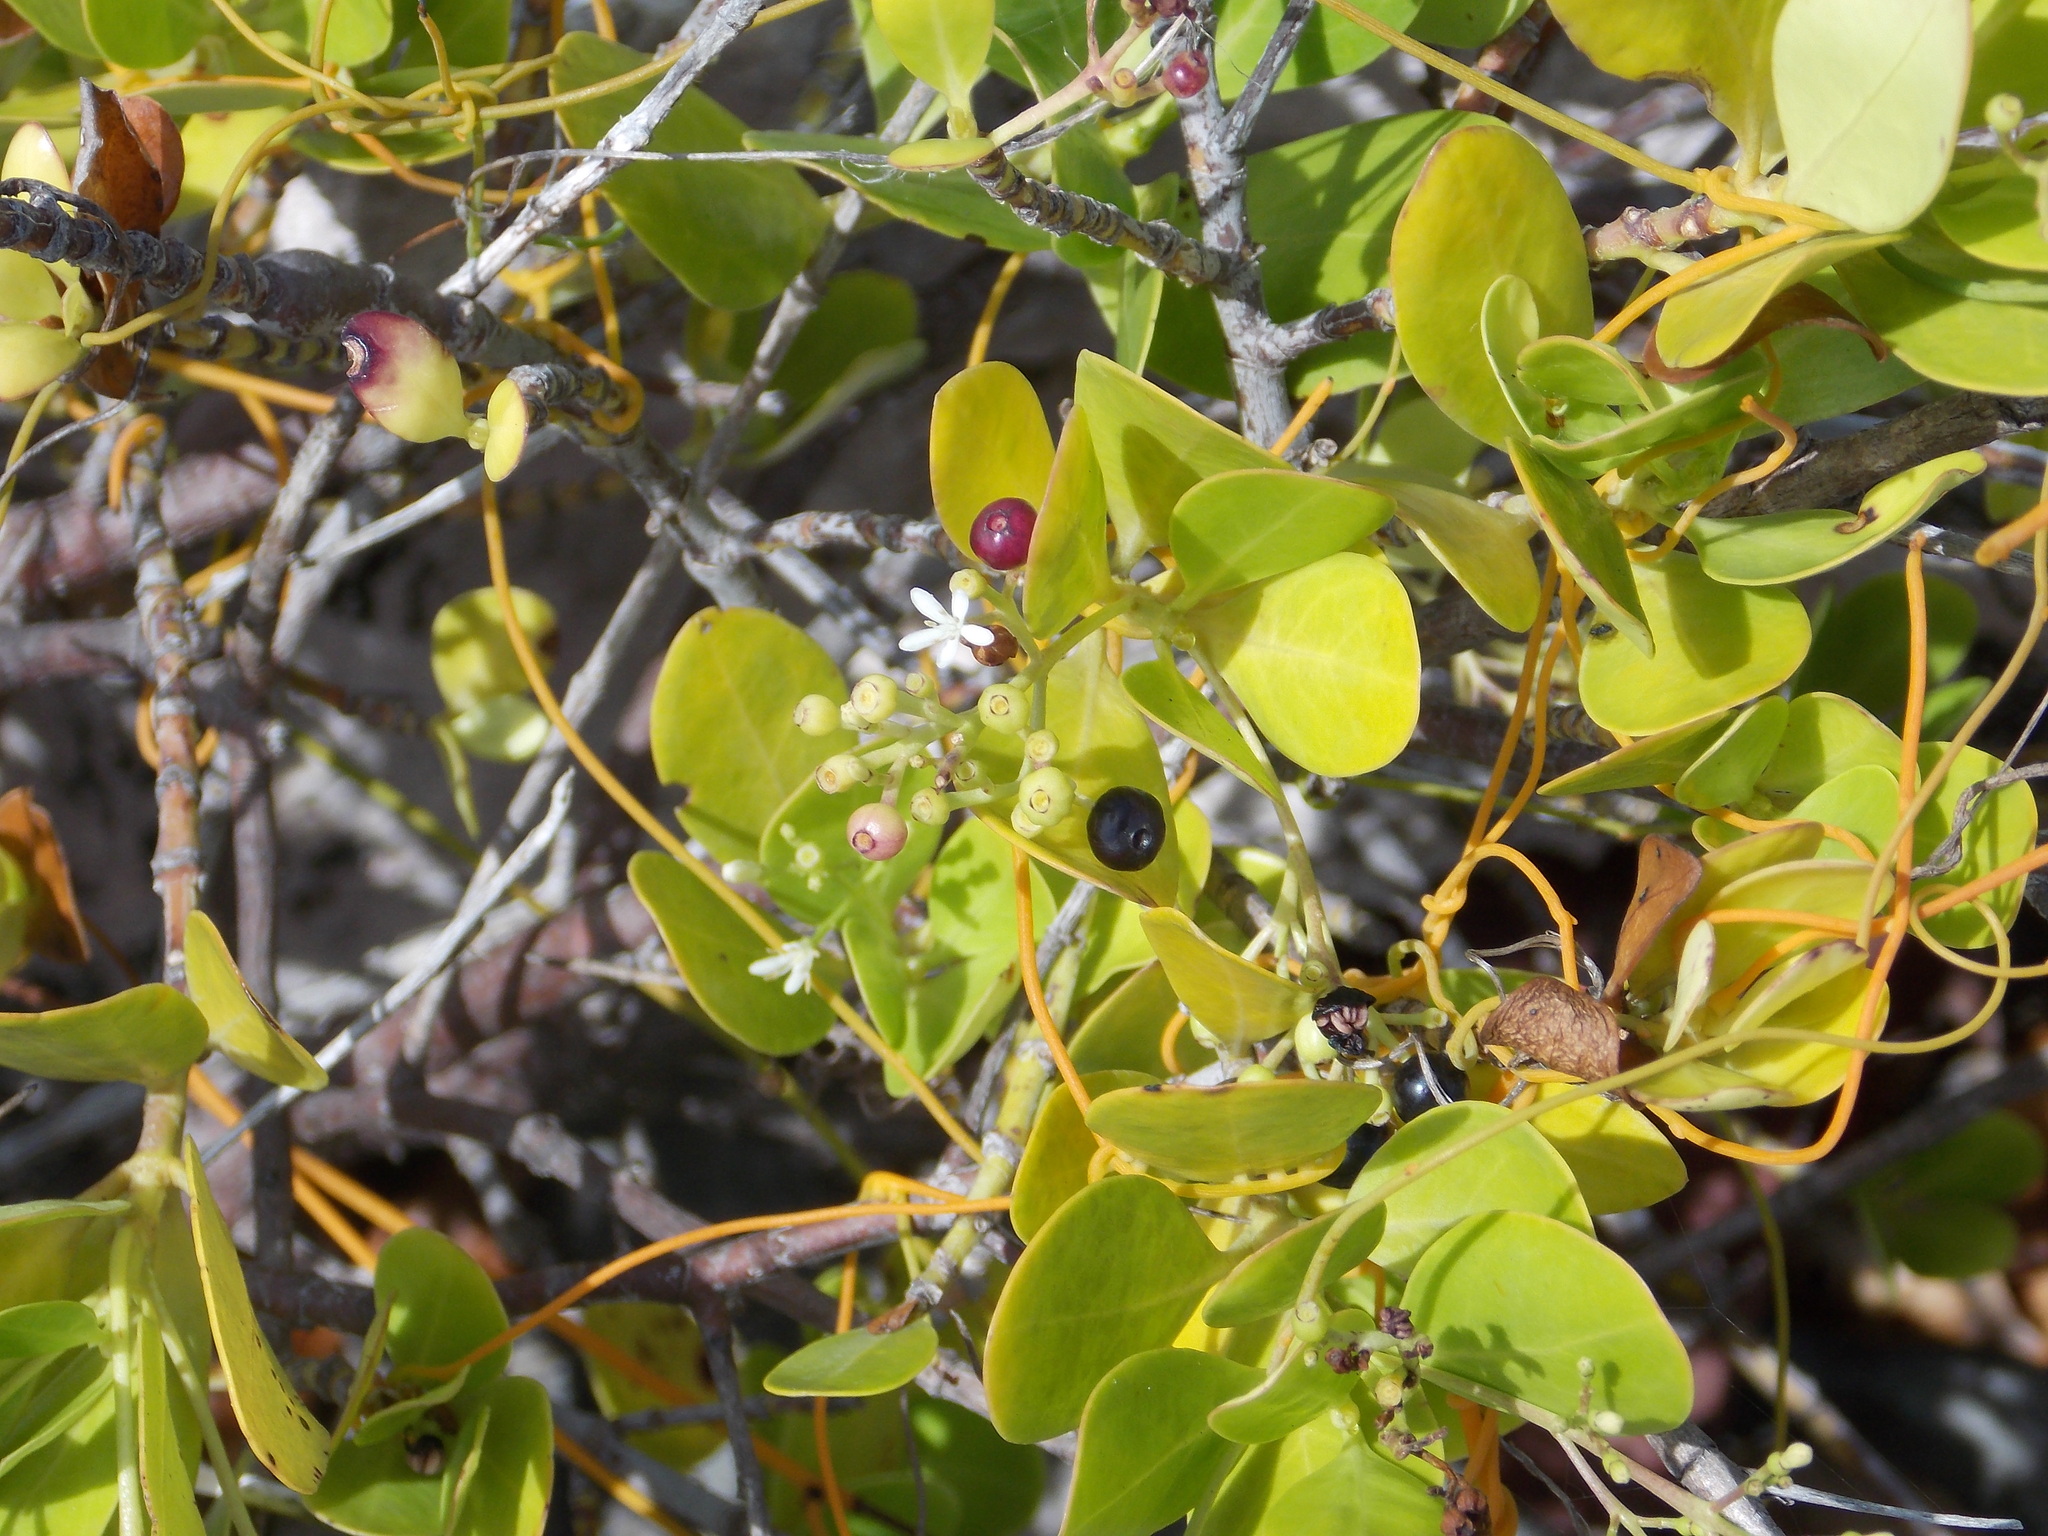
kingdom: Plantae
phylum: Tracheophyta
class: Magnoliopsida
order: Gentianales
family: Rubiaceae
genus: Erithalis
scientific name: Erithalis fruticosa
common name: Candlewood
